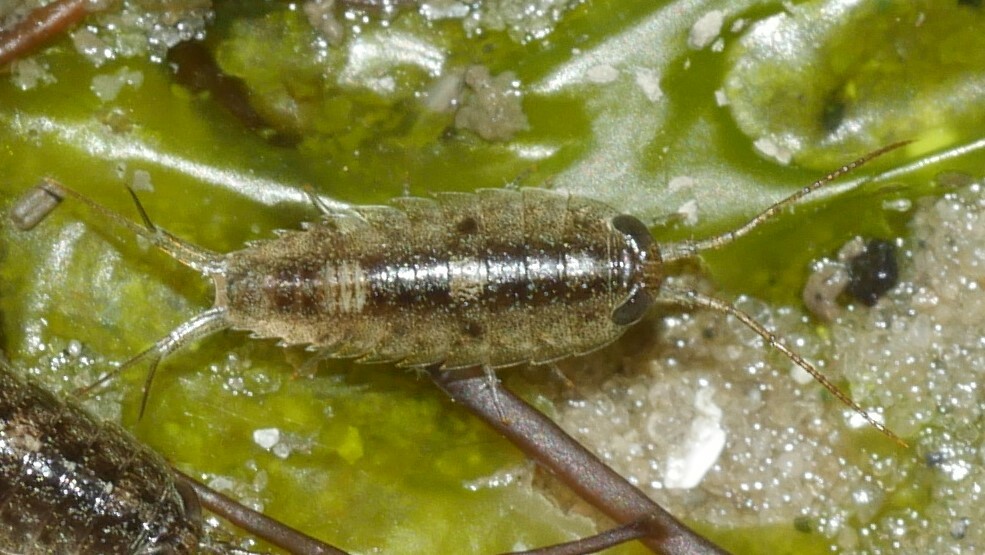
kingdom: Animalia
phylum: Arthropoda
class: Malacostraca
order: Isopoda
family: Ligiidae
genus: Ligia
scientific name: Ligia exotica
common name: Wharf roach
